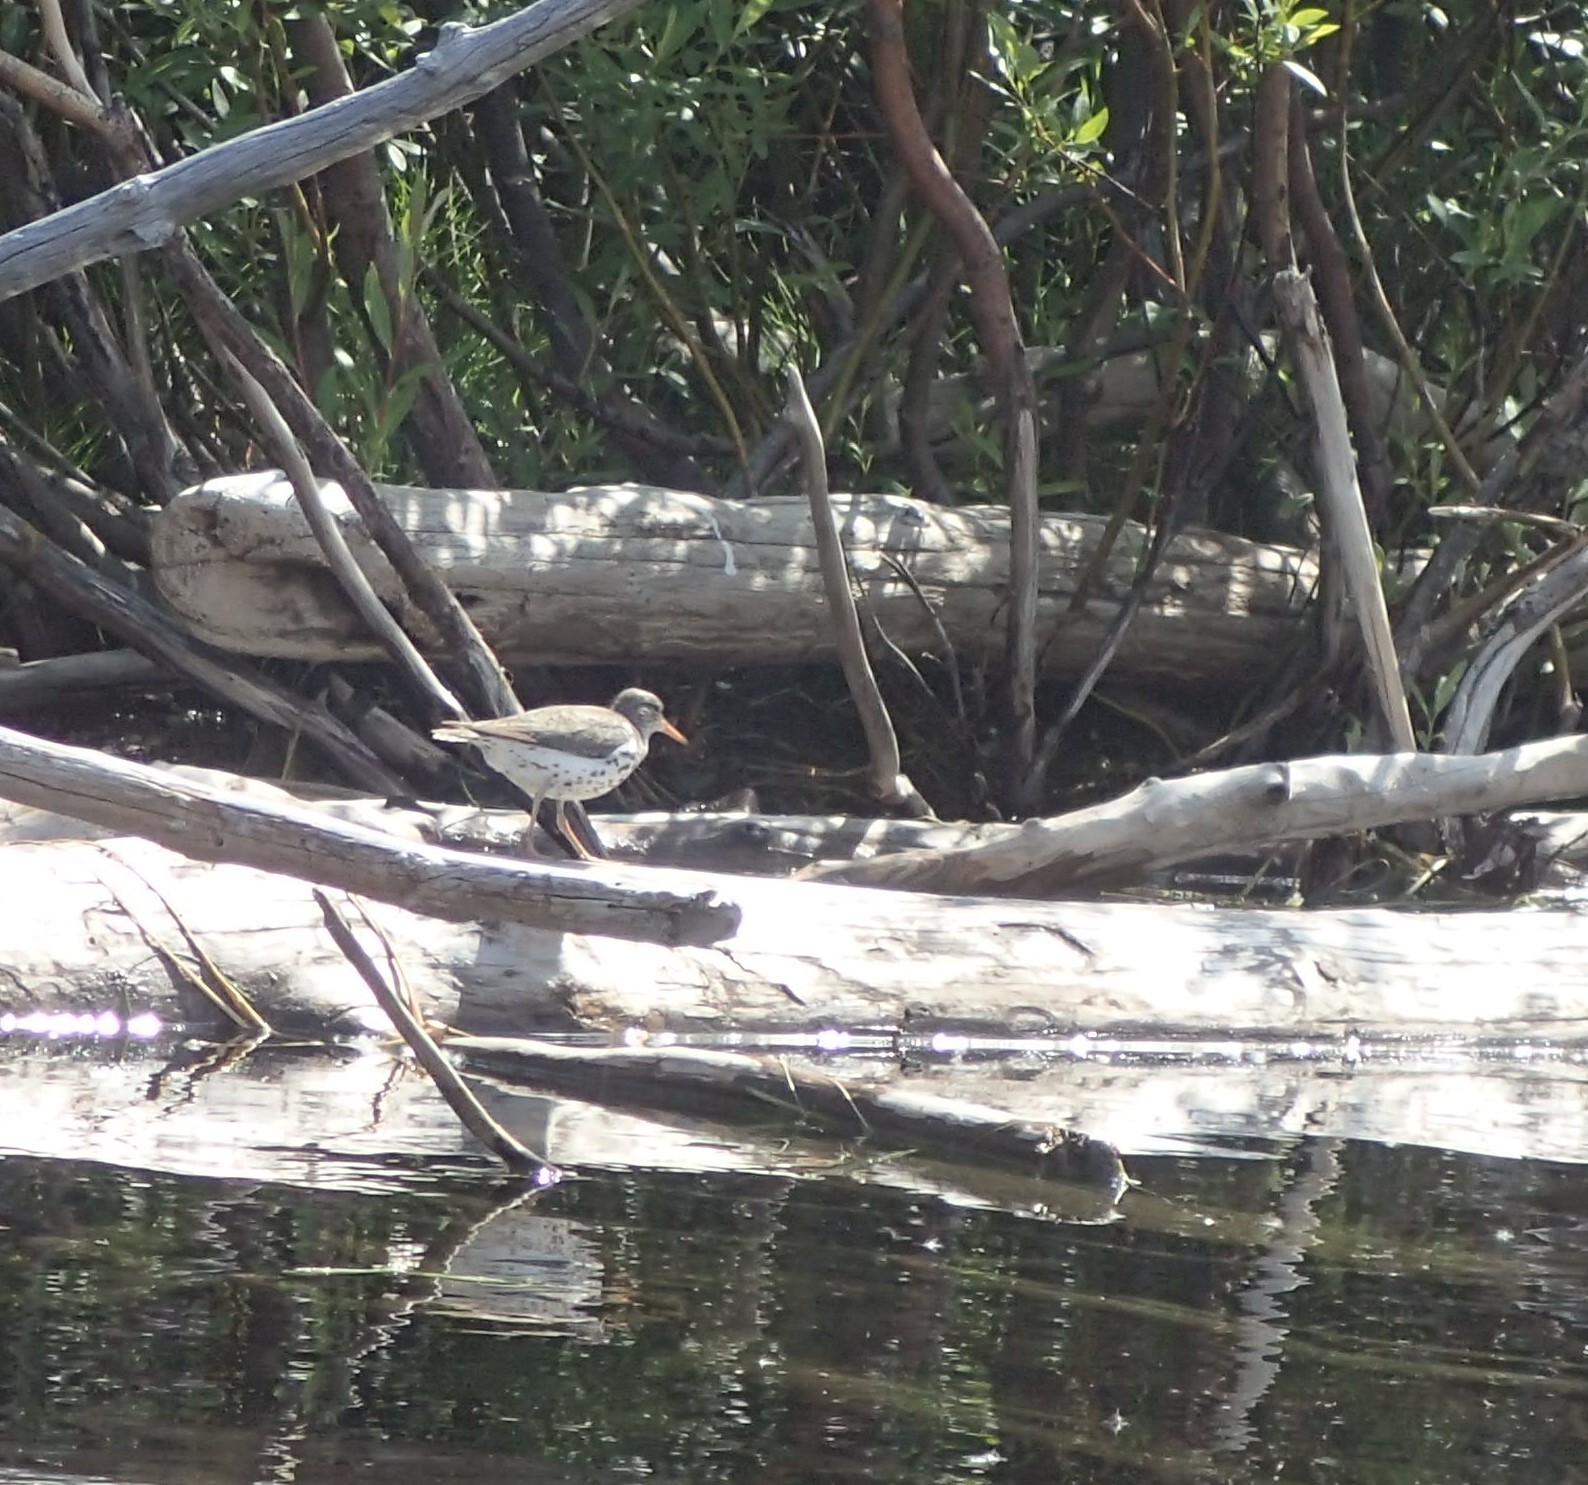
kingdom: Animalia
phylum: Chordata
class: Aves
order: Charadriiformes
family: Scolopacidae
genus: Actitis
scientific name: Actitis macularius
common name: Spotted sandpiper
